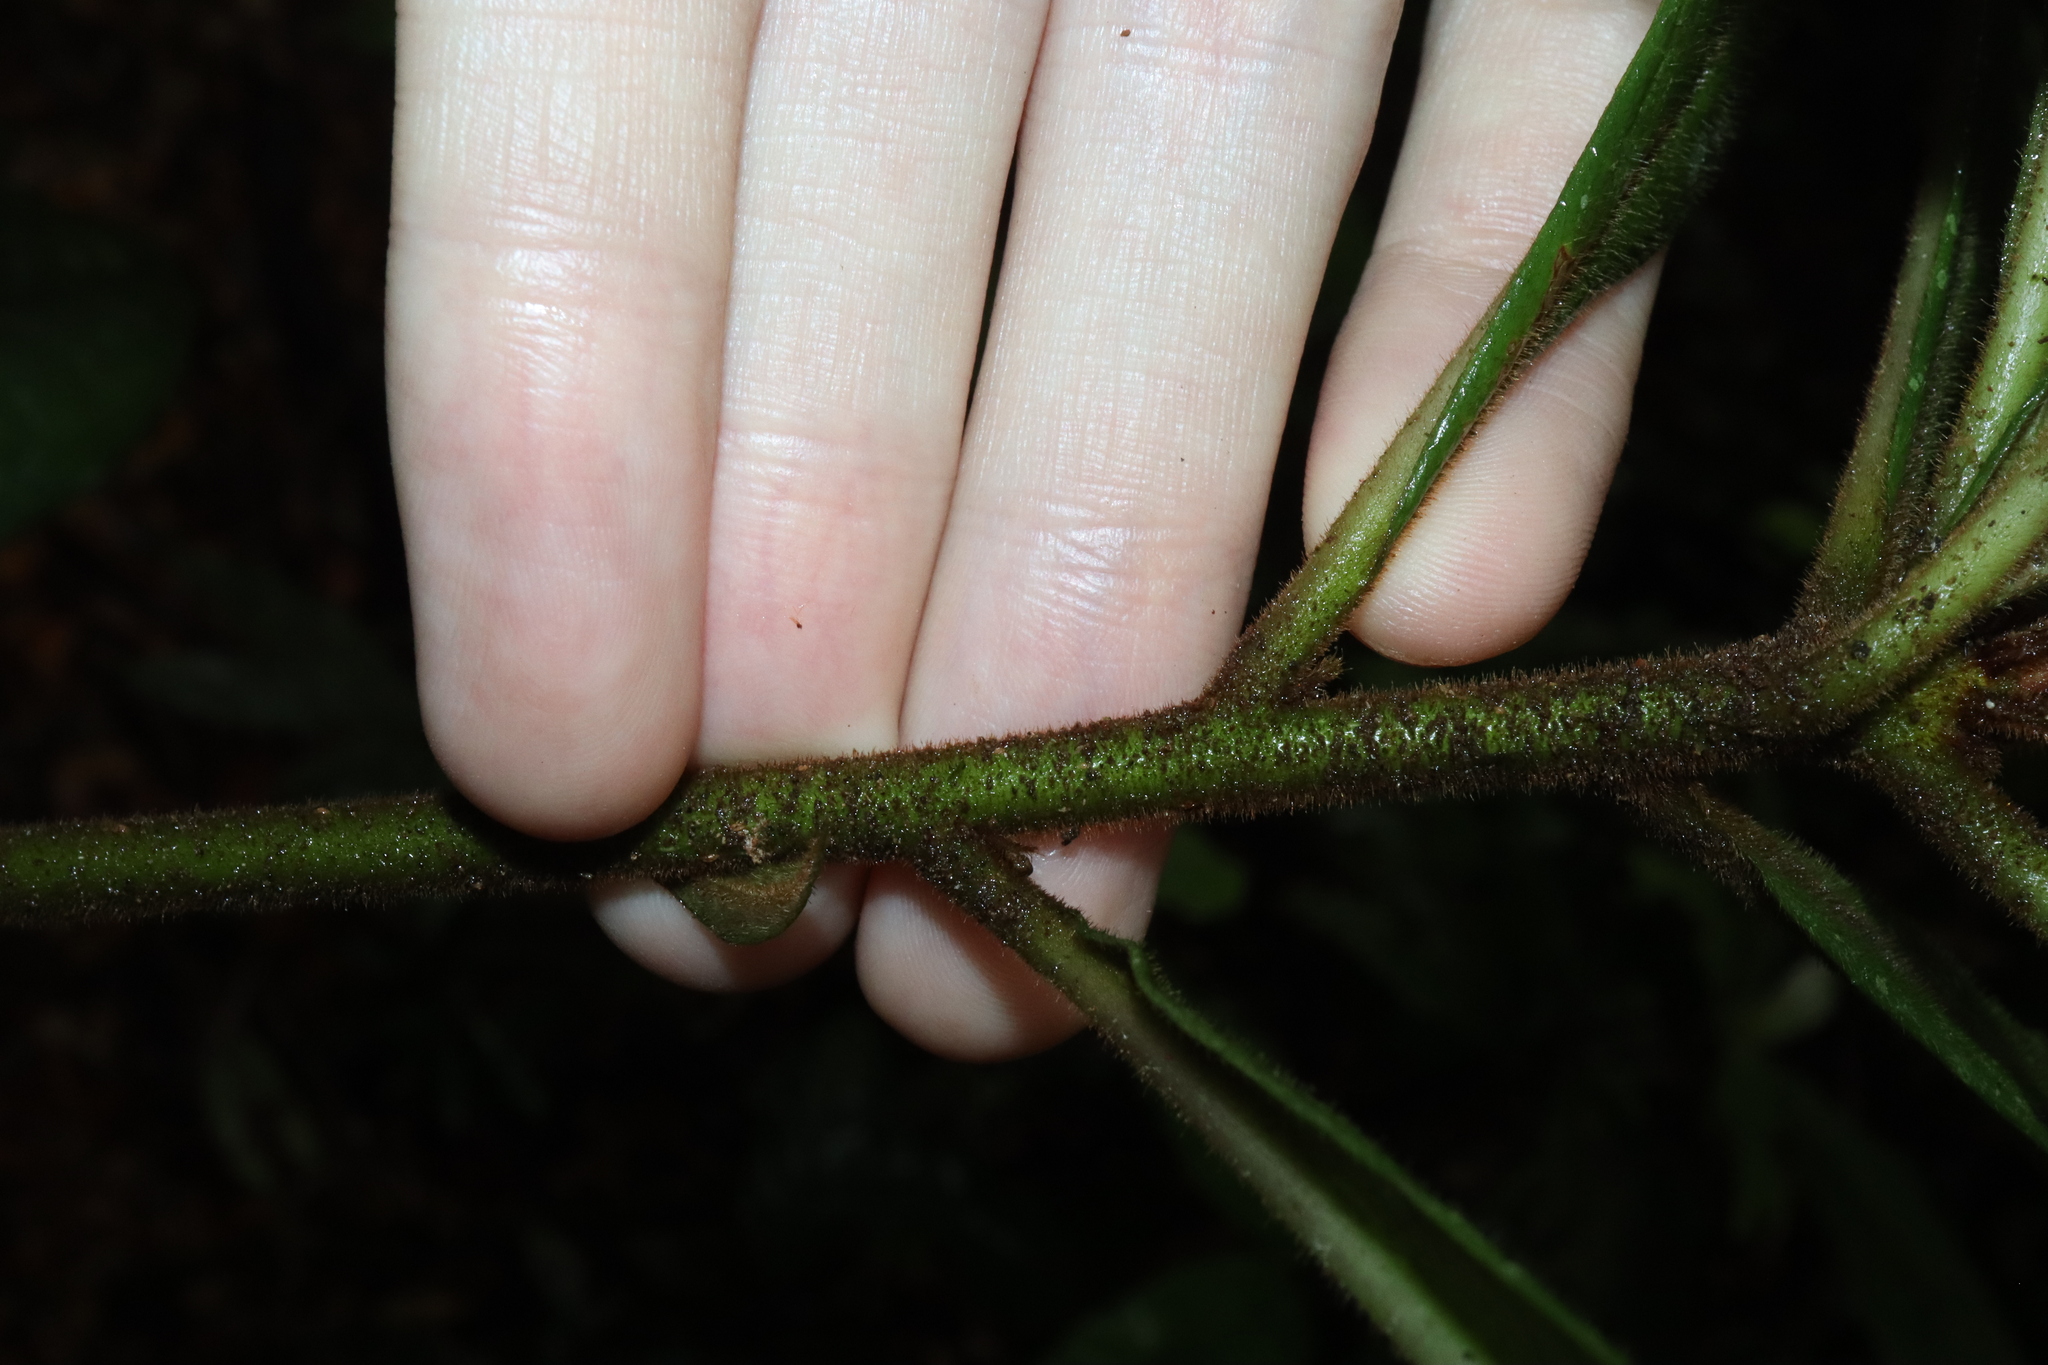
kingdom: Plantae
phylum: Tracheophyta
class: Magnoliopsida
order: Apiales
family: Pittosporaceae
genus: Pittosporum
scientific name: Pittosporum rubiginosum
